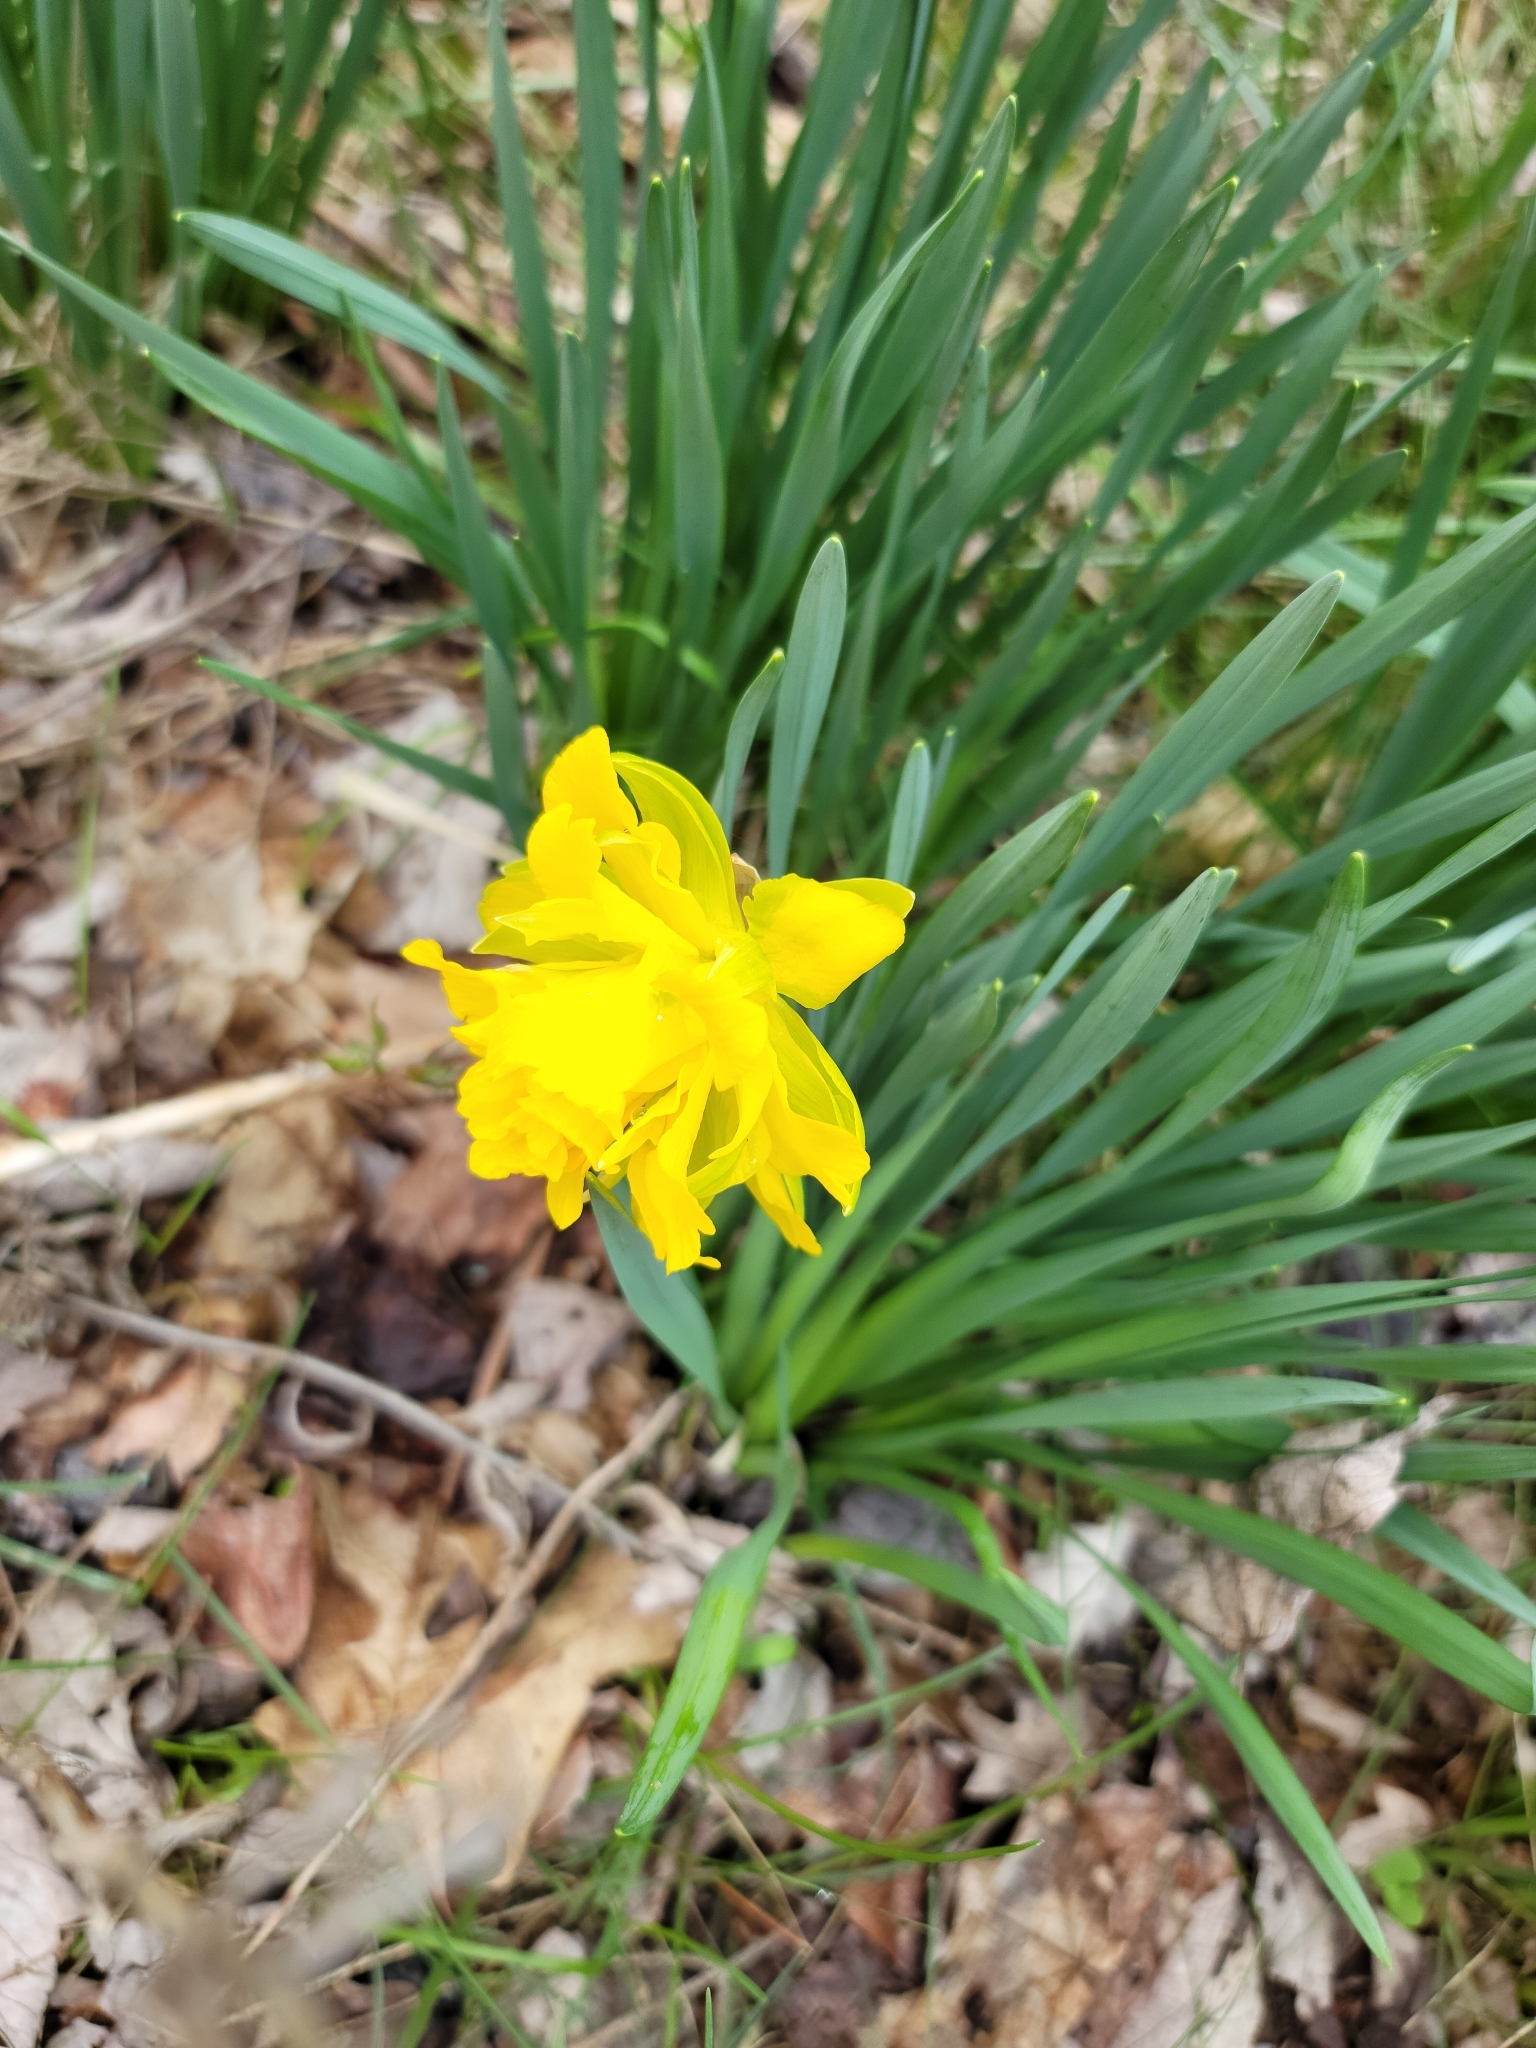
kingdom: Plantae
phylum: Tracheophyta
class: Liliopsida
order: Asparagales
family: Amaryllidaceae
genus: Narcissus
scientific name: Narcissus
